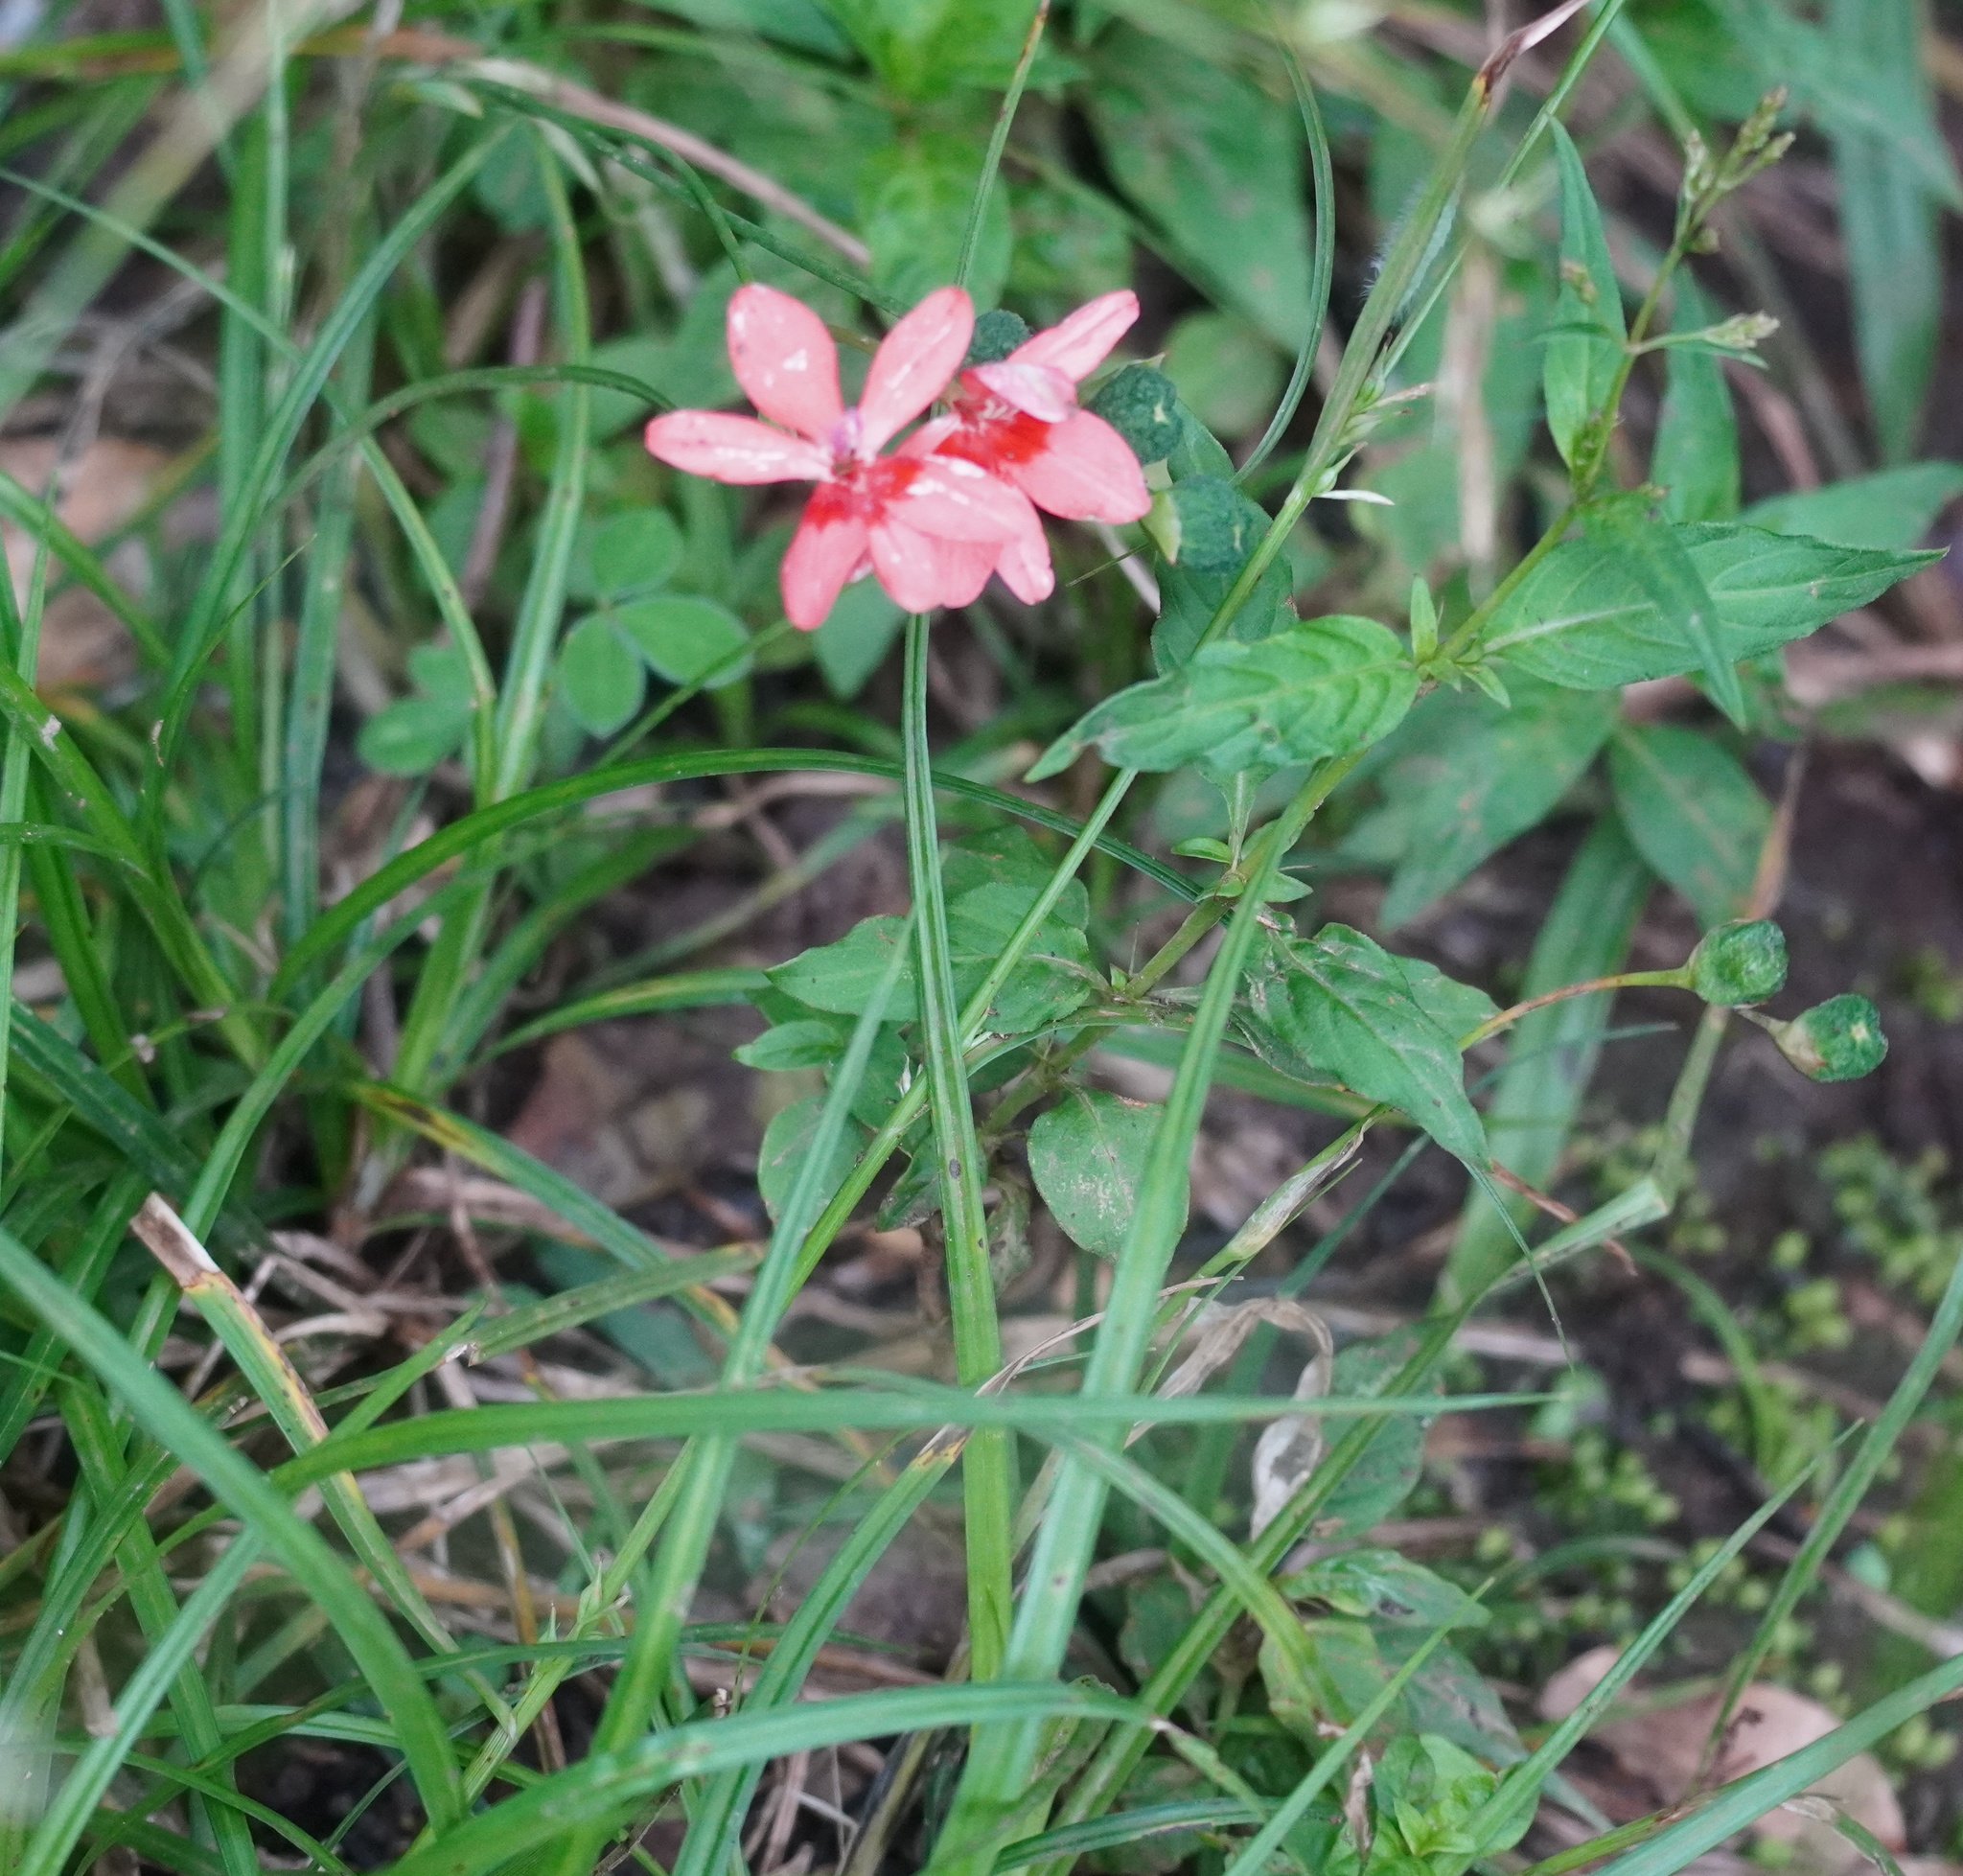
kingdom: Plantae
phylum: Tracheophyta
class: Liliopsida
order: Asparagales
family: Iridaceae
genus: Freesia
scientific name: Freesia laxa
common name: False freesia
